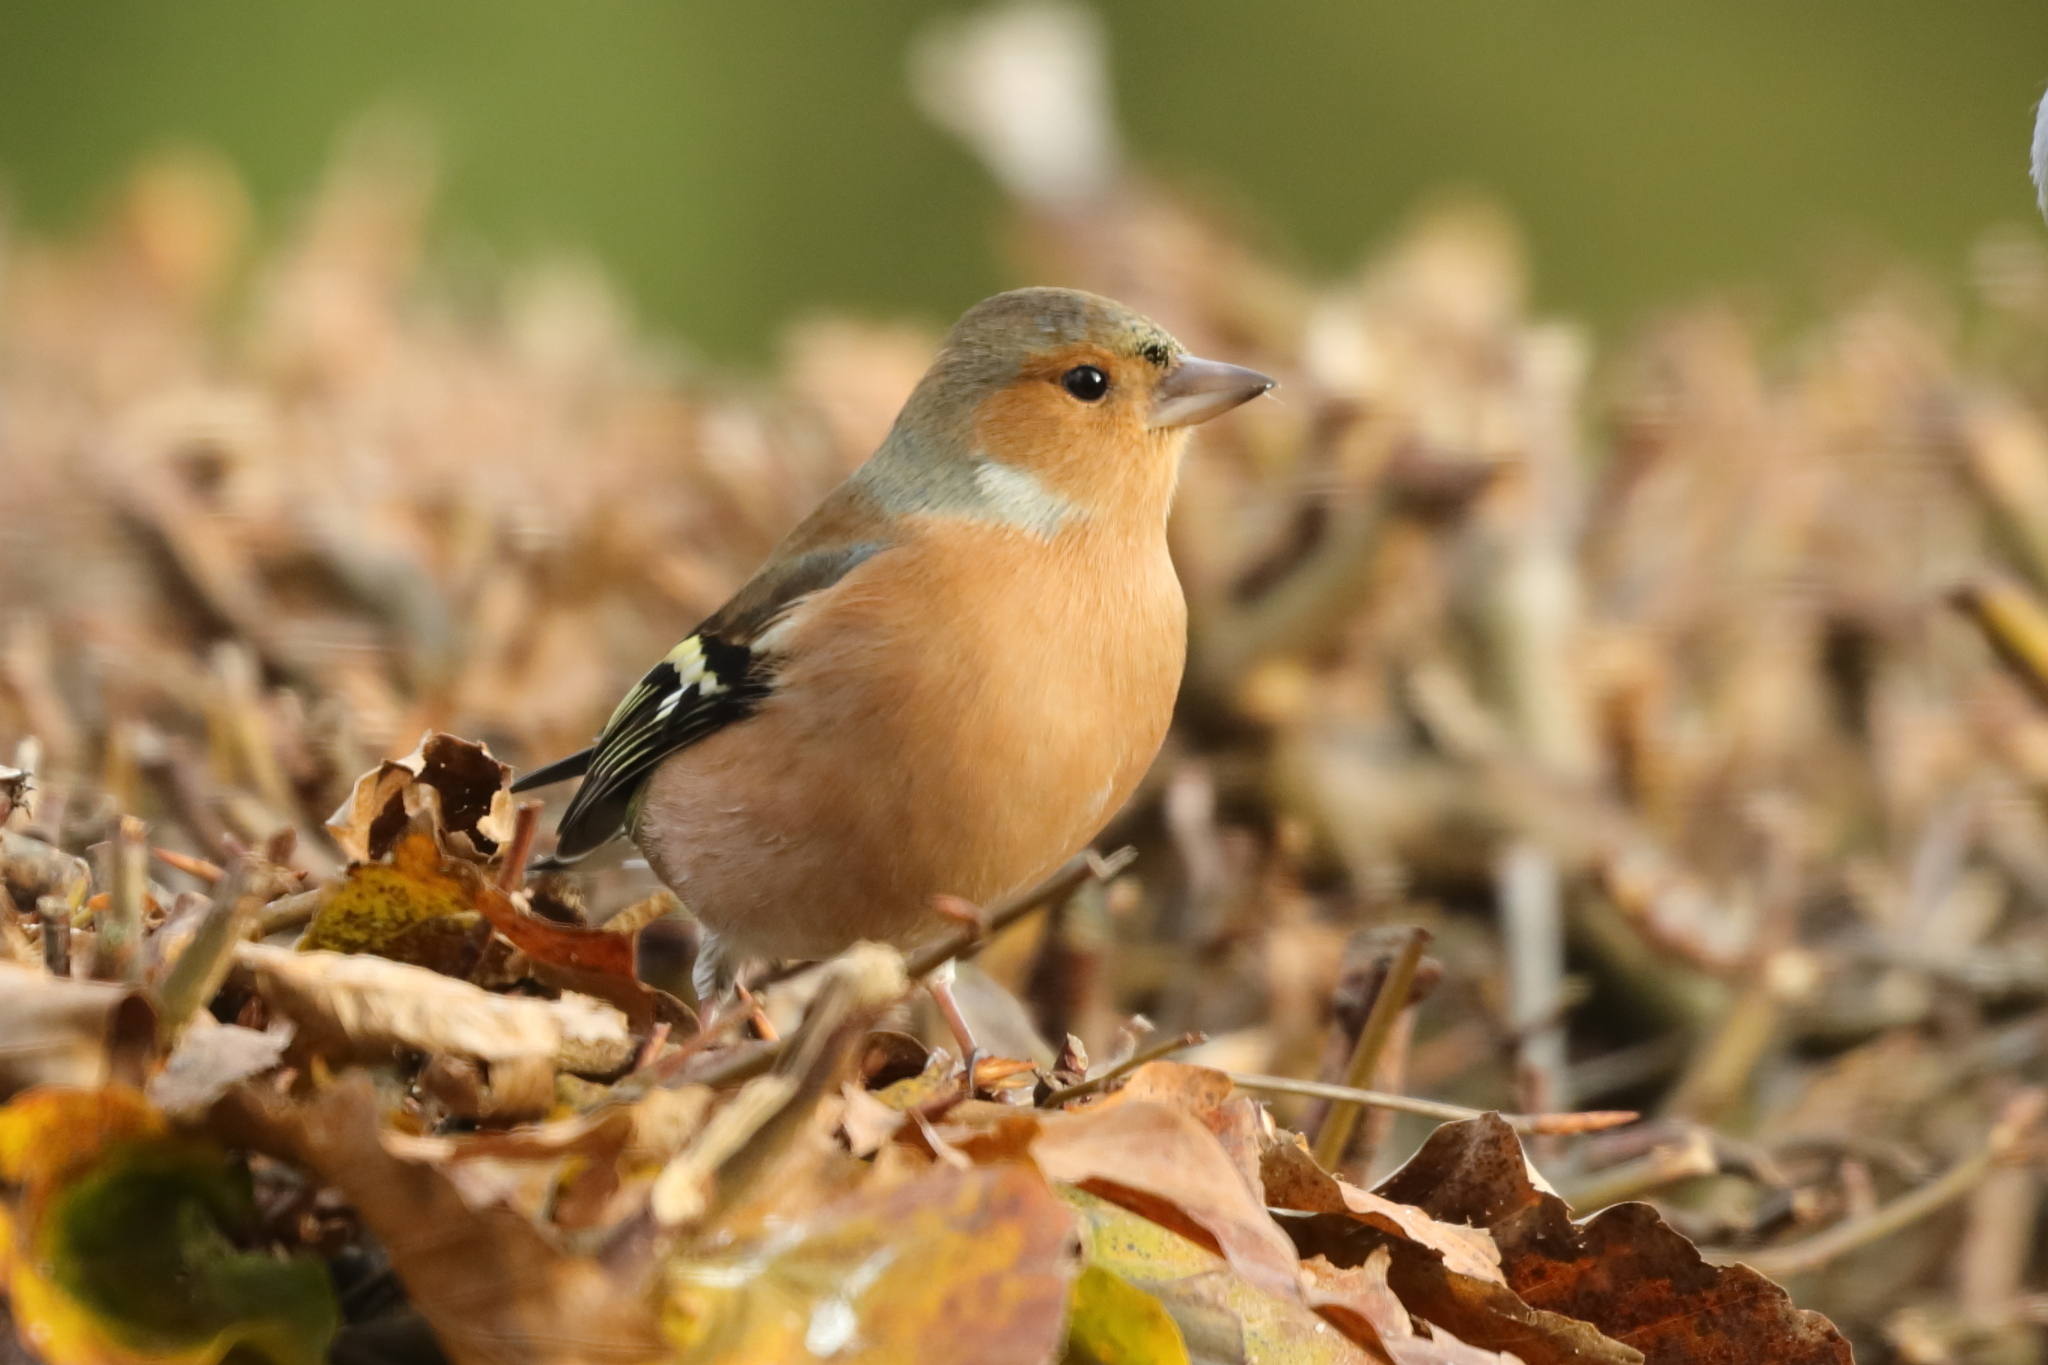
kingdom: Animalia
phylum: Chordata
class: Aves
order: Passeriformes
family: Fringillidae
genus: Fringilla
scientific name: Fringilla coelebs
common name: Common chaffinch
